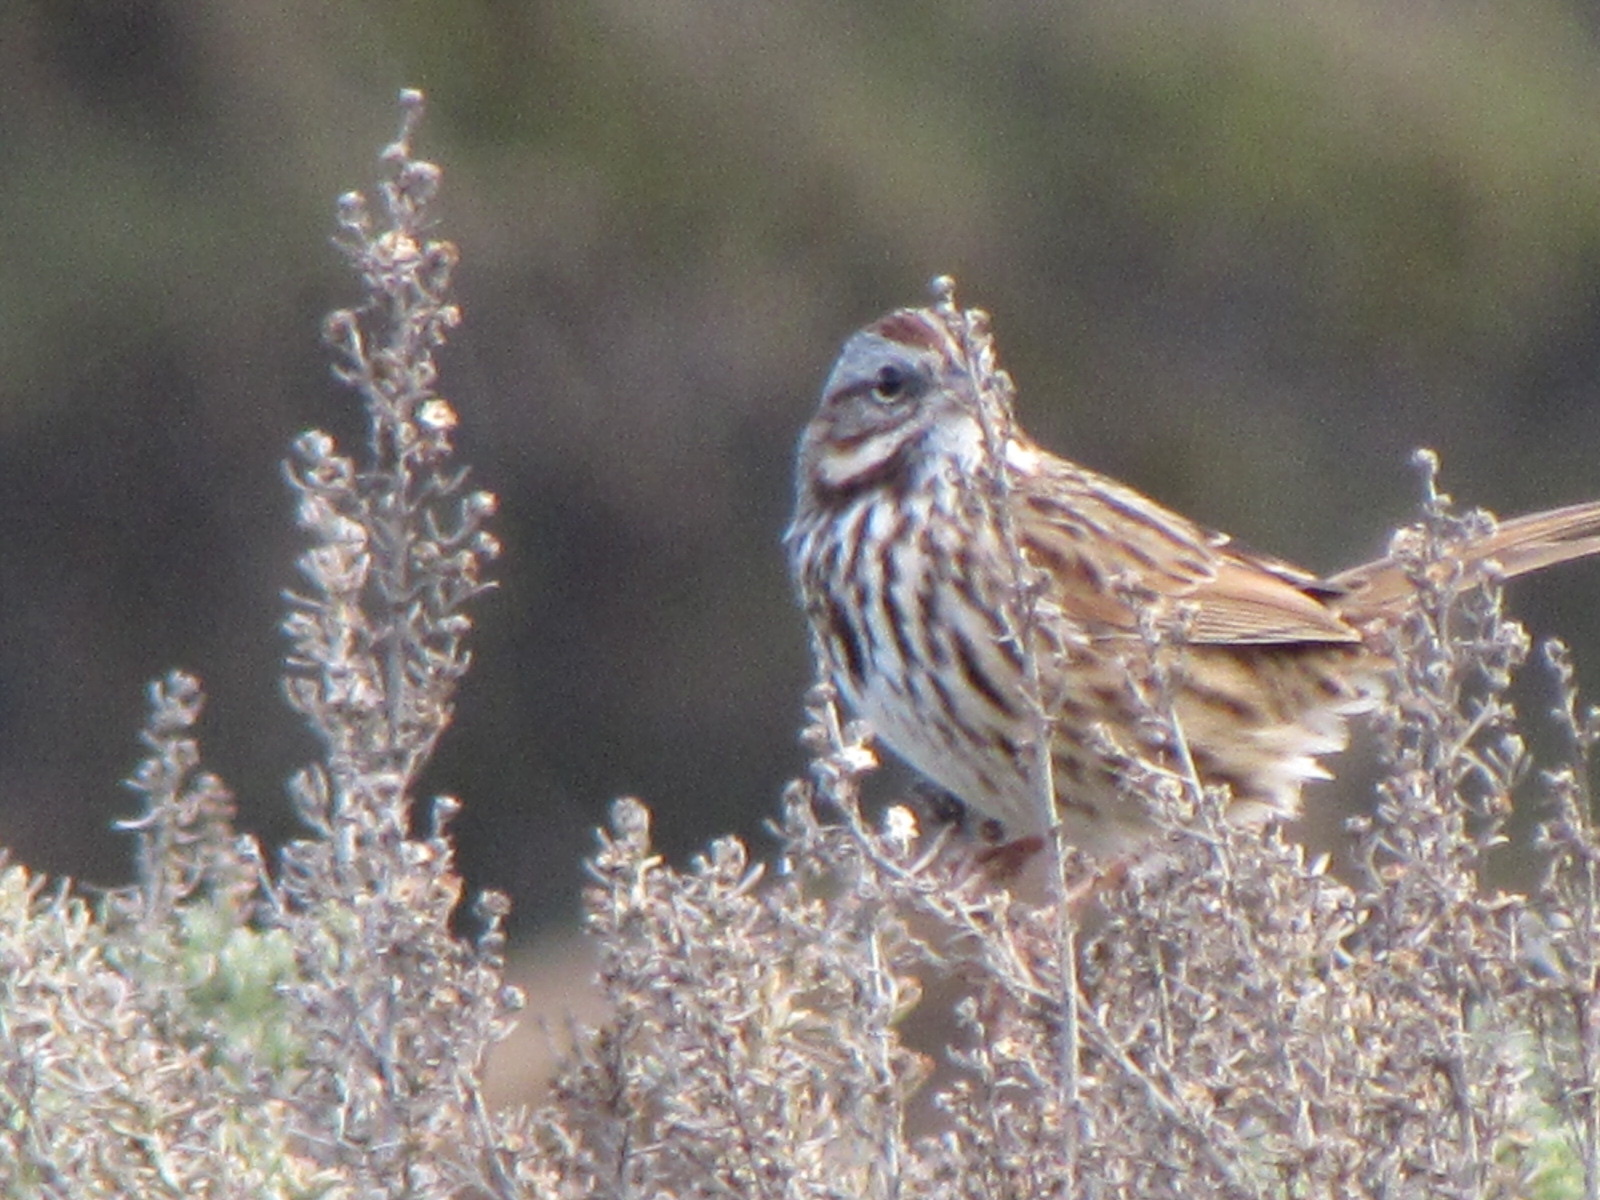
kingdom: Animalia
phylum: Chordata
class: Aves
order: Passeriformes
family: Passerellidae
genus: Melospiza
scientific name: Melospiza melodia
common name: Song sparrow
